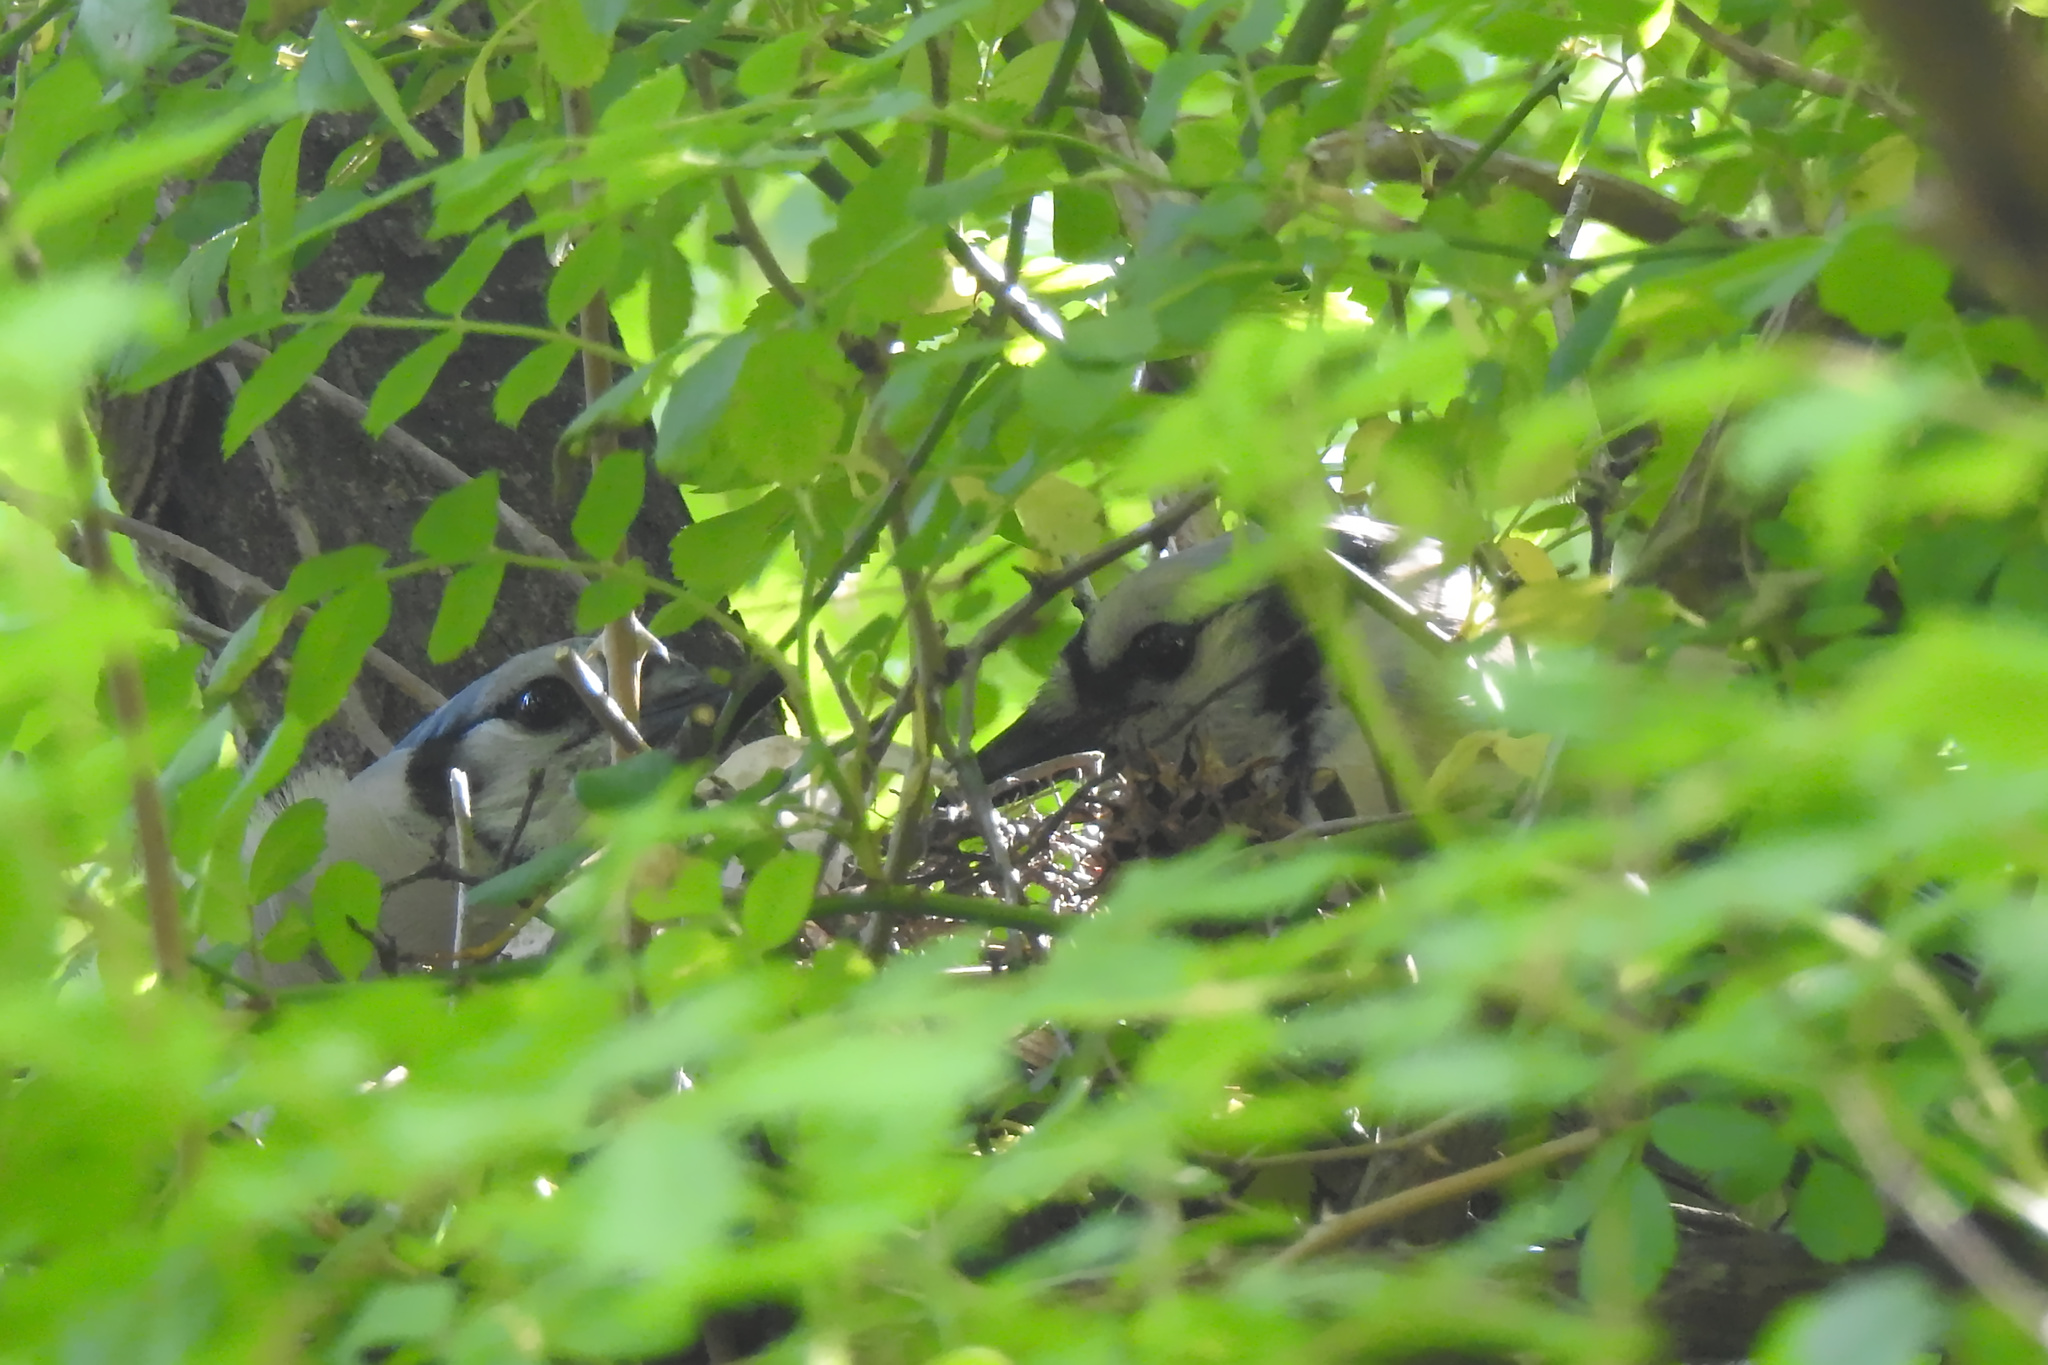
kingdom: Animalia
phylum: Chordata
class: Aves
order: Passeriformes
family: Corvidae
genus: Cyanocitta
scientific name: Cyanocitta cristata
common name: Blue jay
